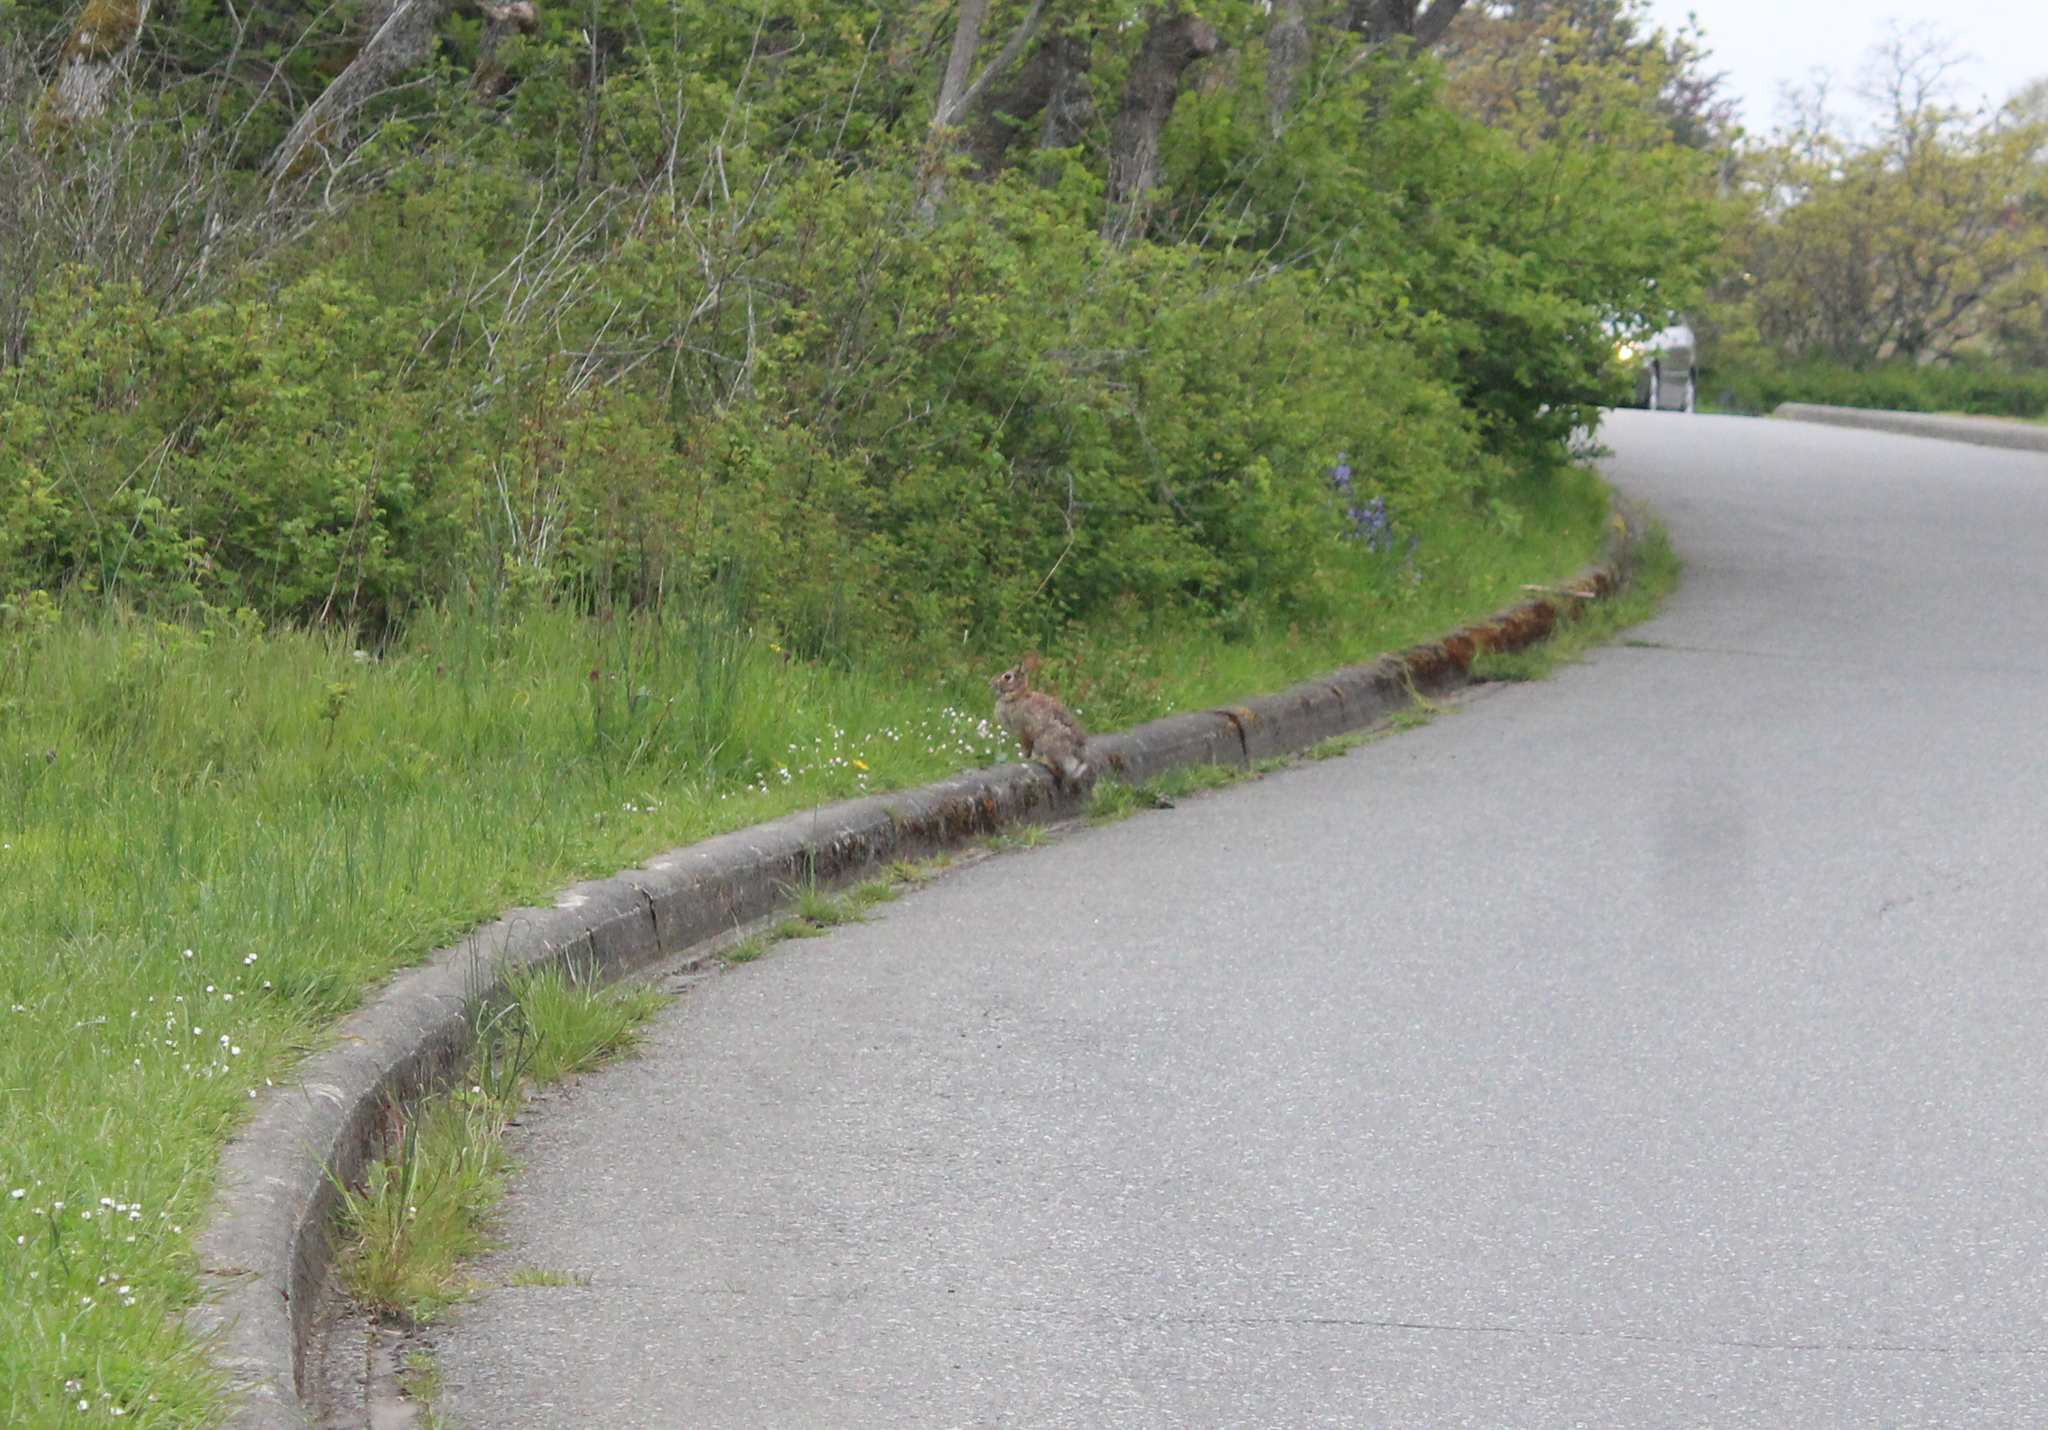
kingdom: Animalia
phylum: Chordata
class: Mammalia
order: Lagomorpha
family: Leporidae
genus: Sylvilagus
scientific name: Sylvilagus floridanus
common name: Eastern cottontail
